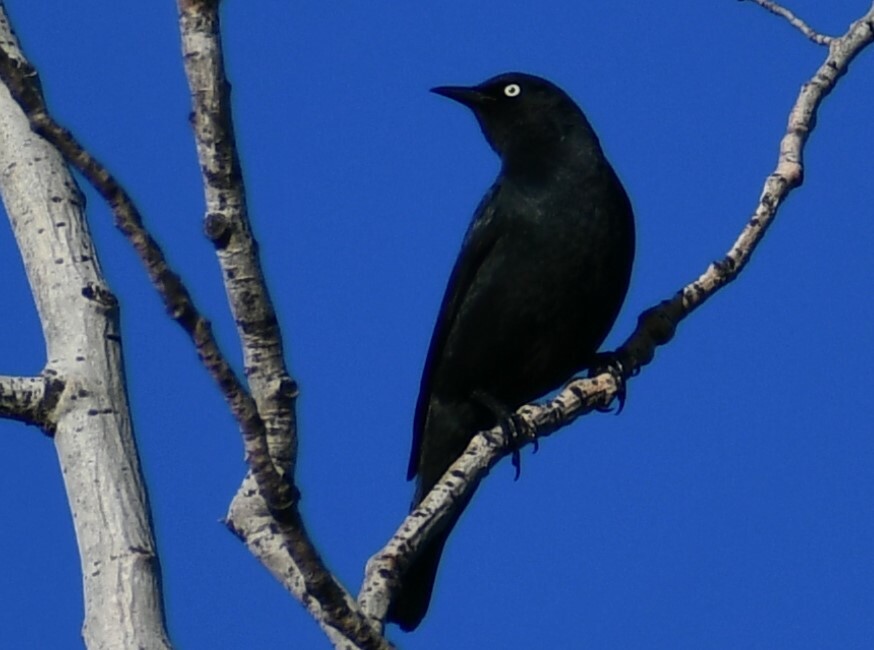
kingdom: Animalia
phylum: Chordata
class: Aves
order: Passeriformes
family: Icteridae
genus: Euphagus
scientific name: Euphagus carolinus
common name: Rusty blackbird
